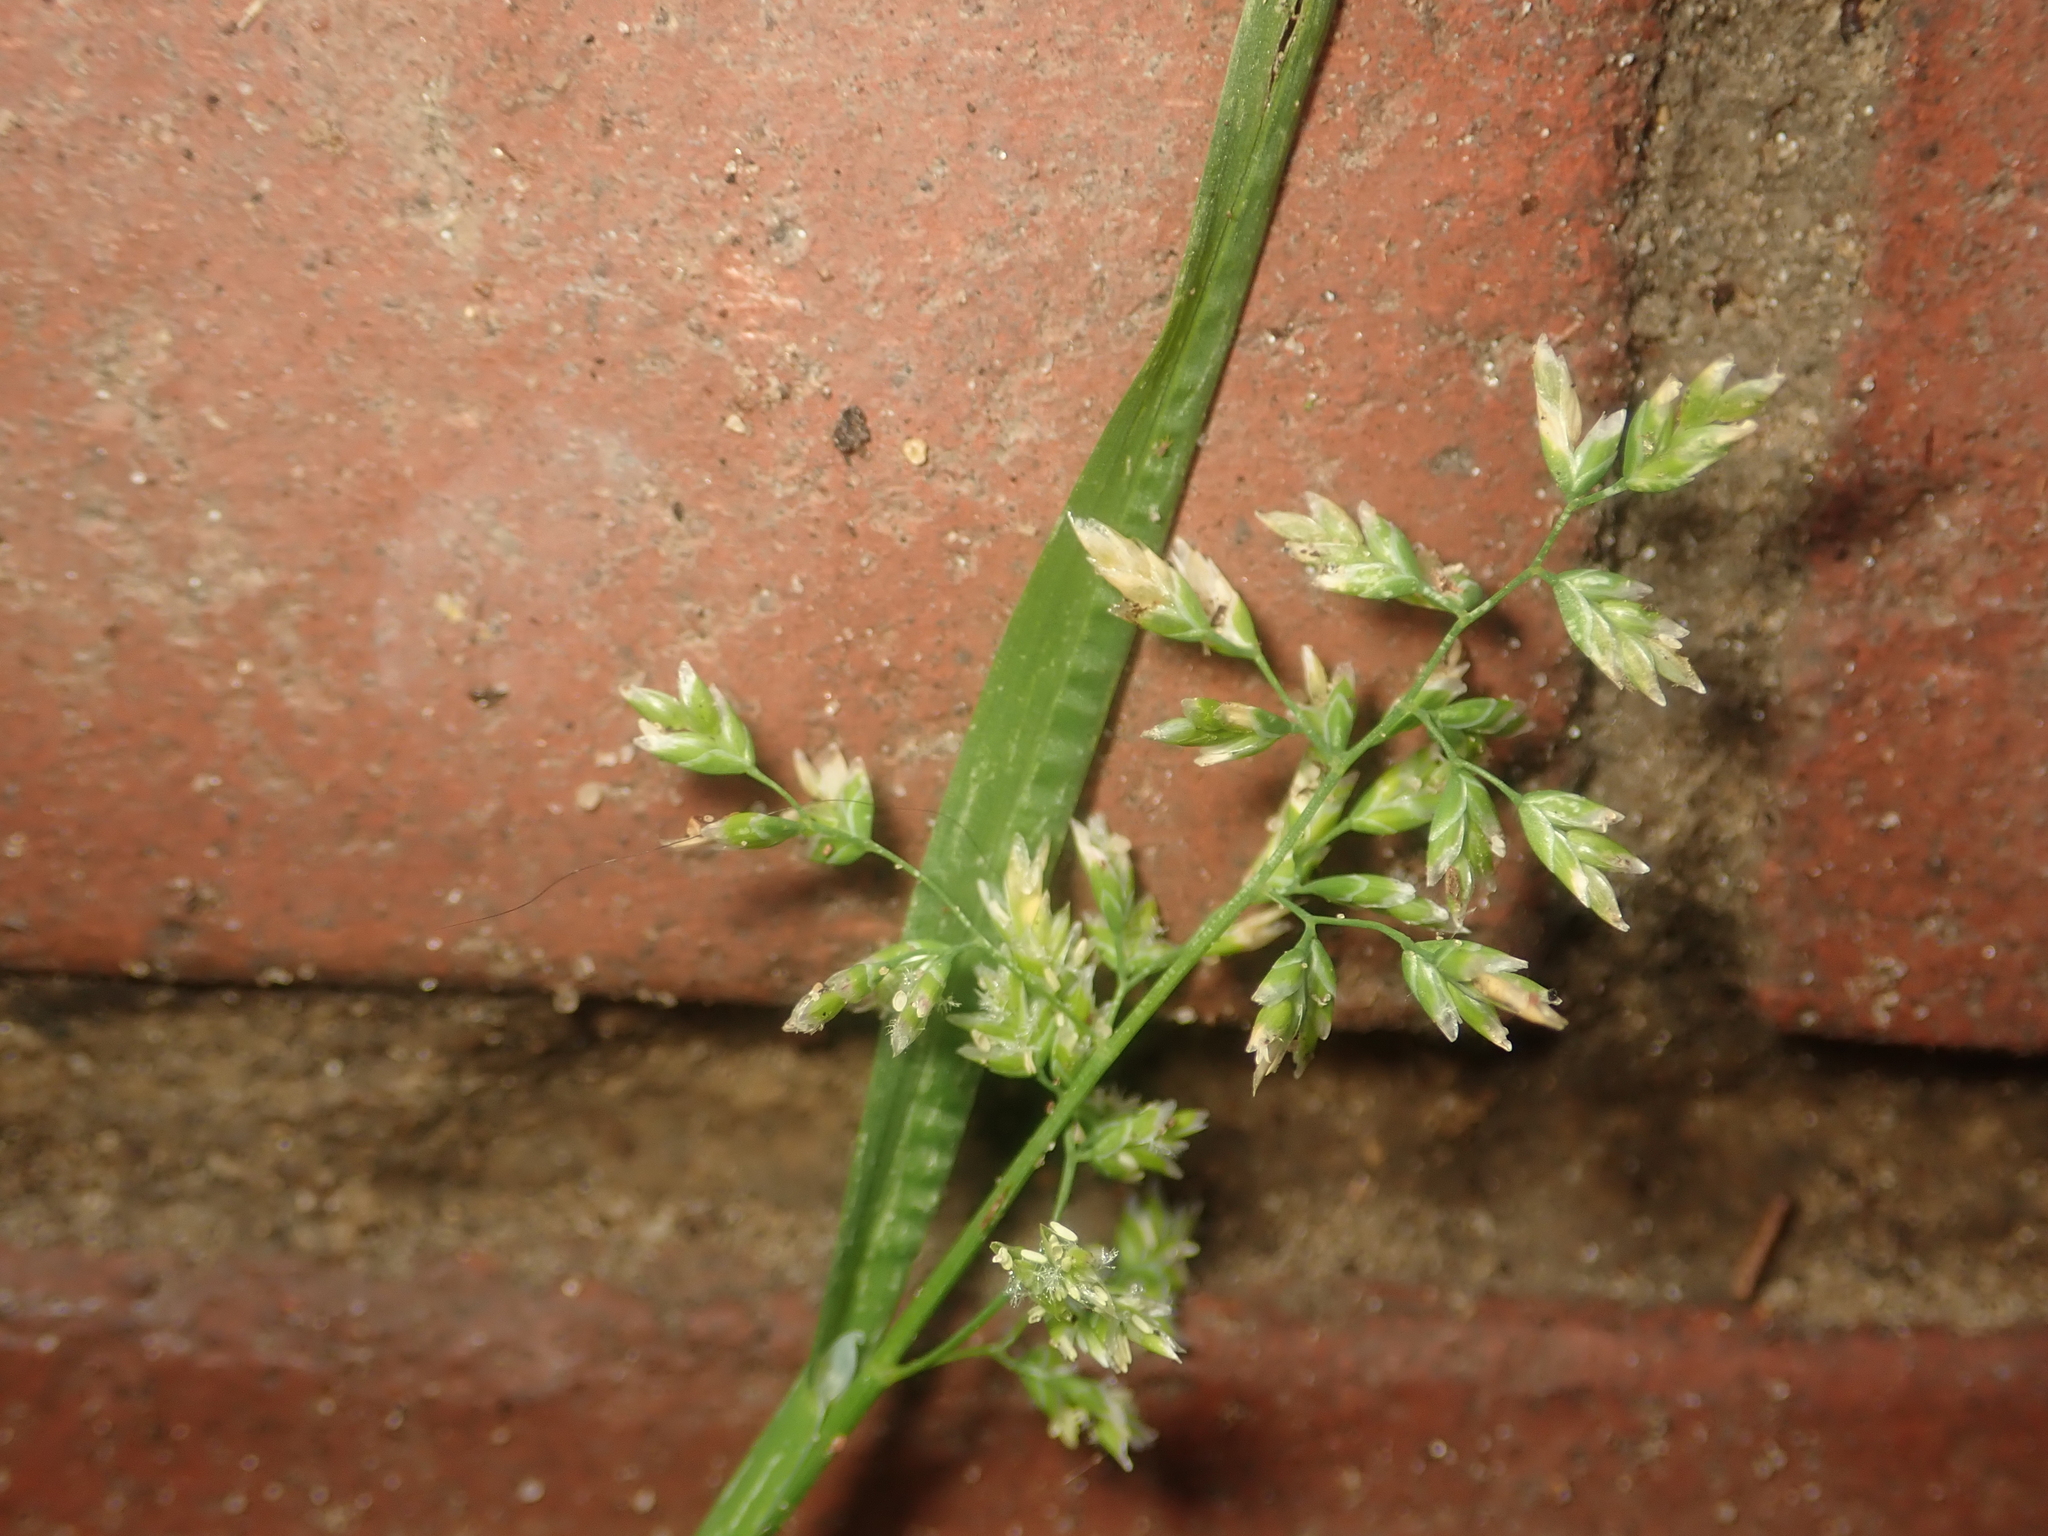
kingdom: Plantae
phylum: Tracheophyta
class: Liliopsida
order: Poales
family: Poaceae
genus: Poa
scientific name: Poa annua
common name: Annual bluegrass
